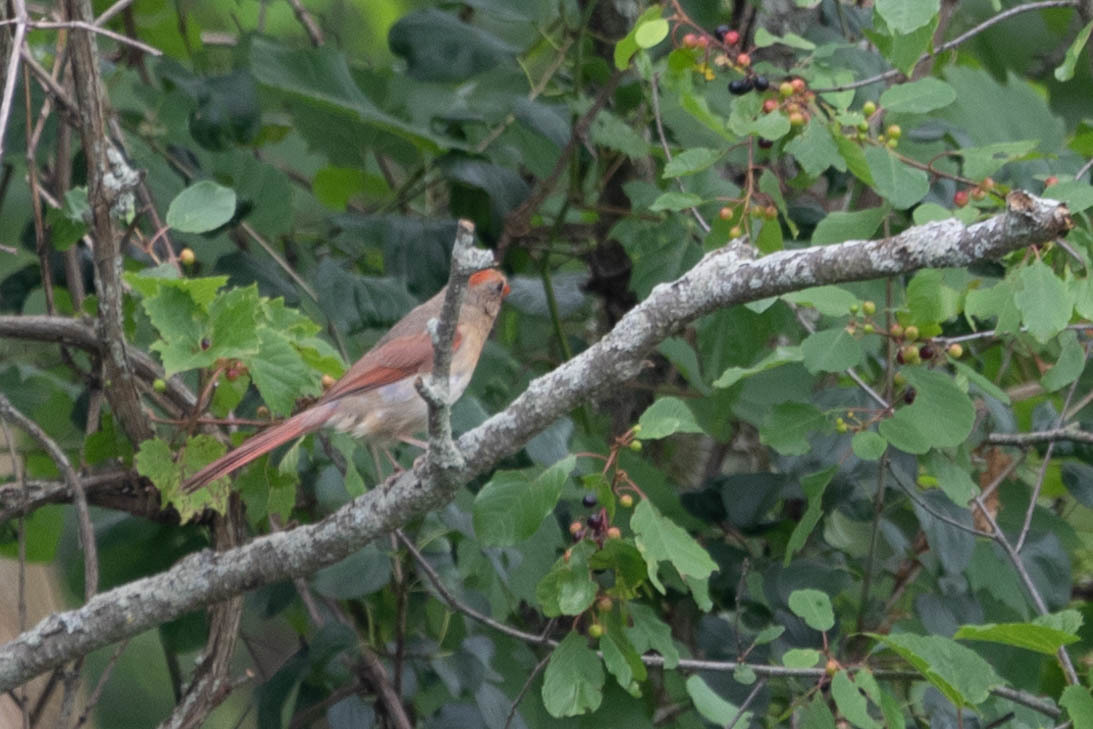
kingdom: Animalia
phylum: Chordata
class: Aves
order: Passeriformes
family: Cardinalidae
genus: Cardinalis
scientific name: Cardinalis cardinalis
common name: Northern cardinal
